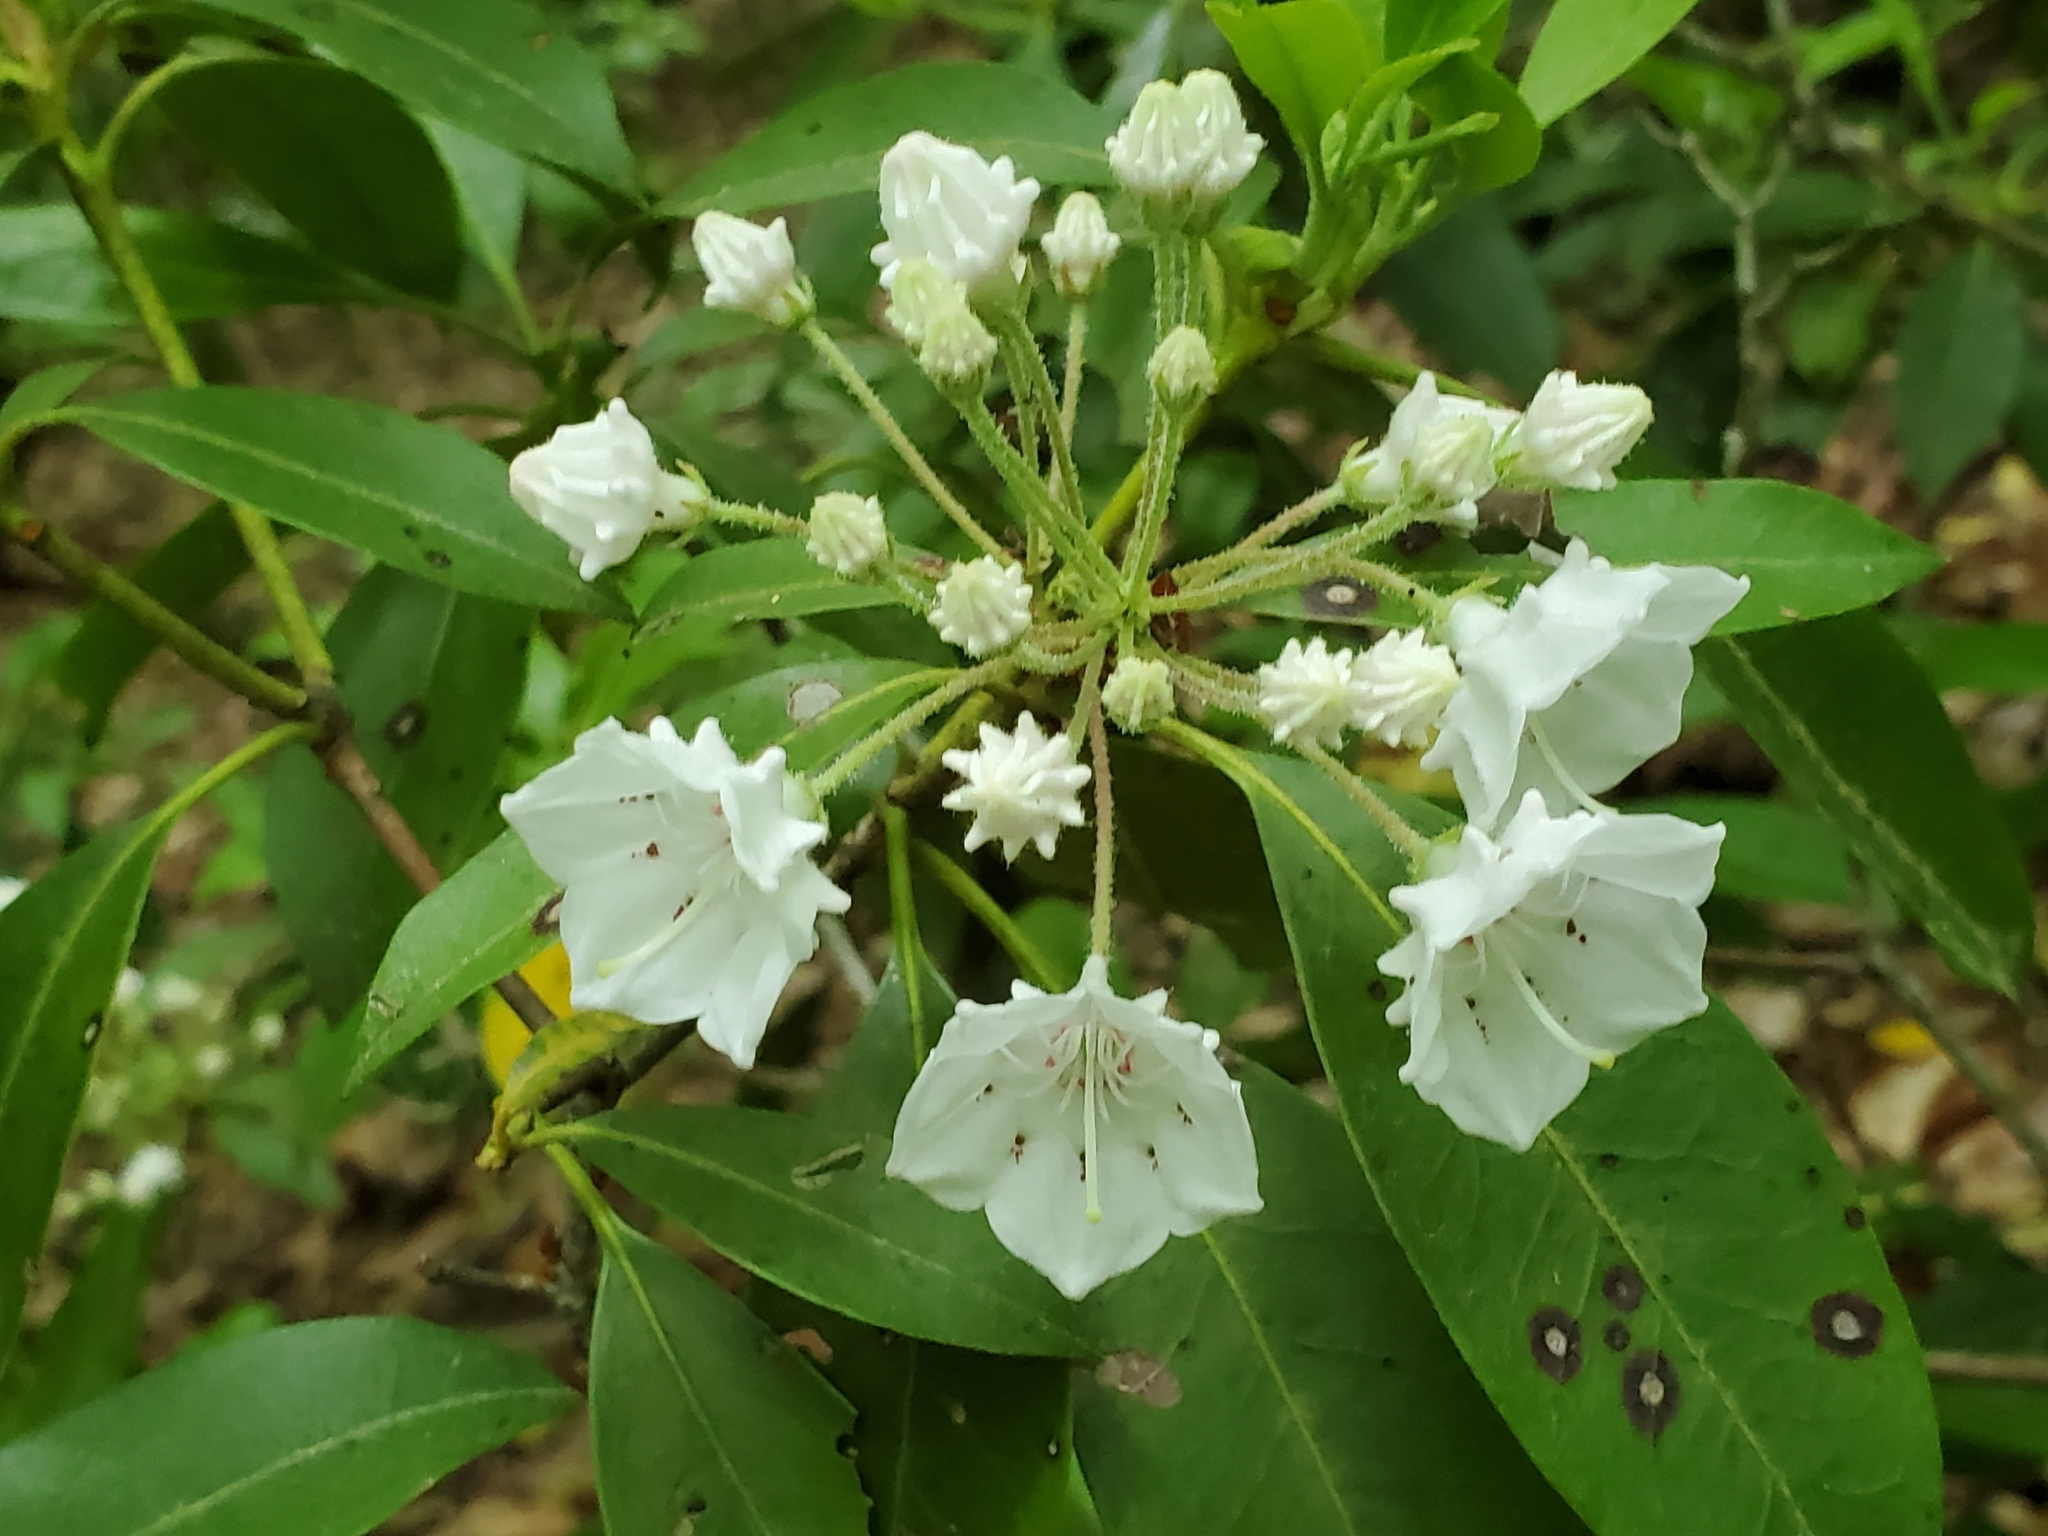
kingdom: Plantae
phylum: Tracheophyta
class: Magnoliopsida
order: Ericales
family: Ericaceae
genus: Kalmia
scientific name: Kalmia latifolia
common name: Mountain-laurel
